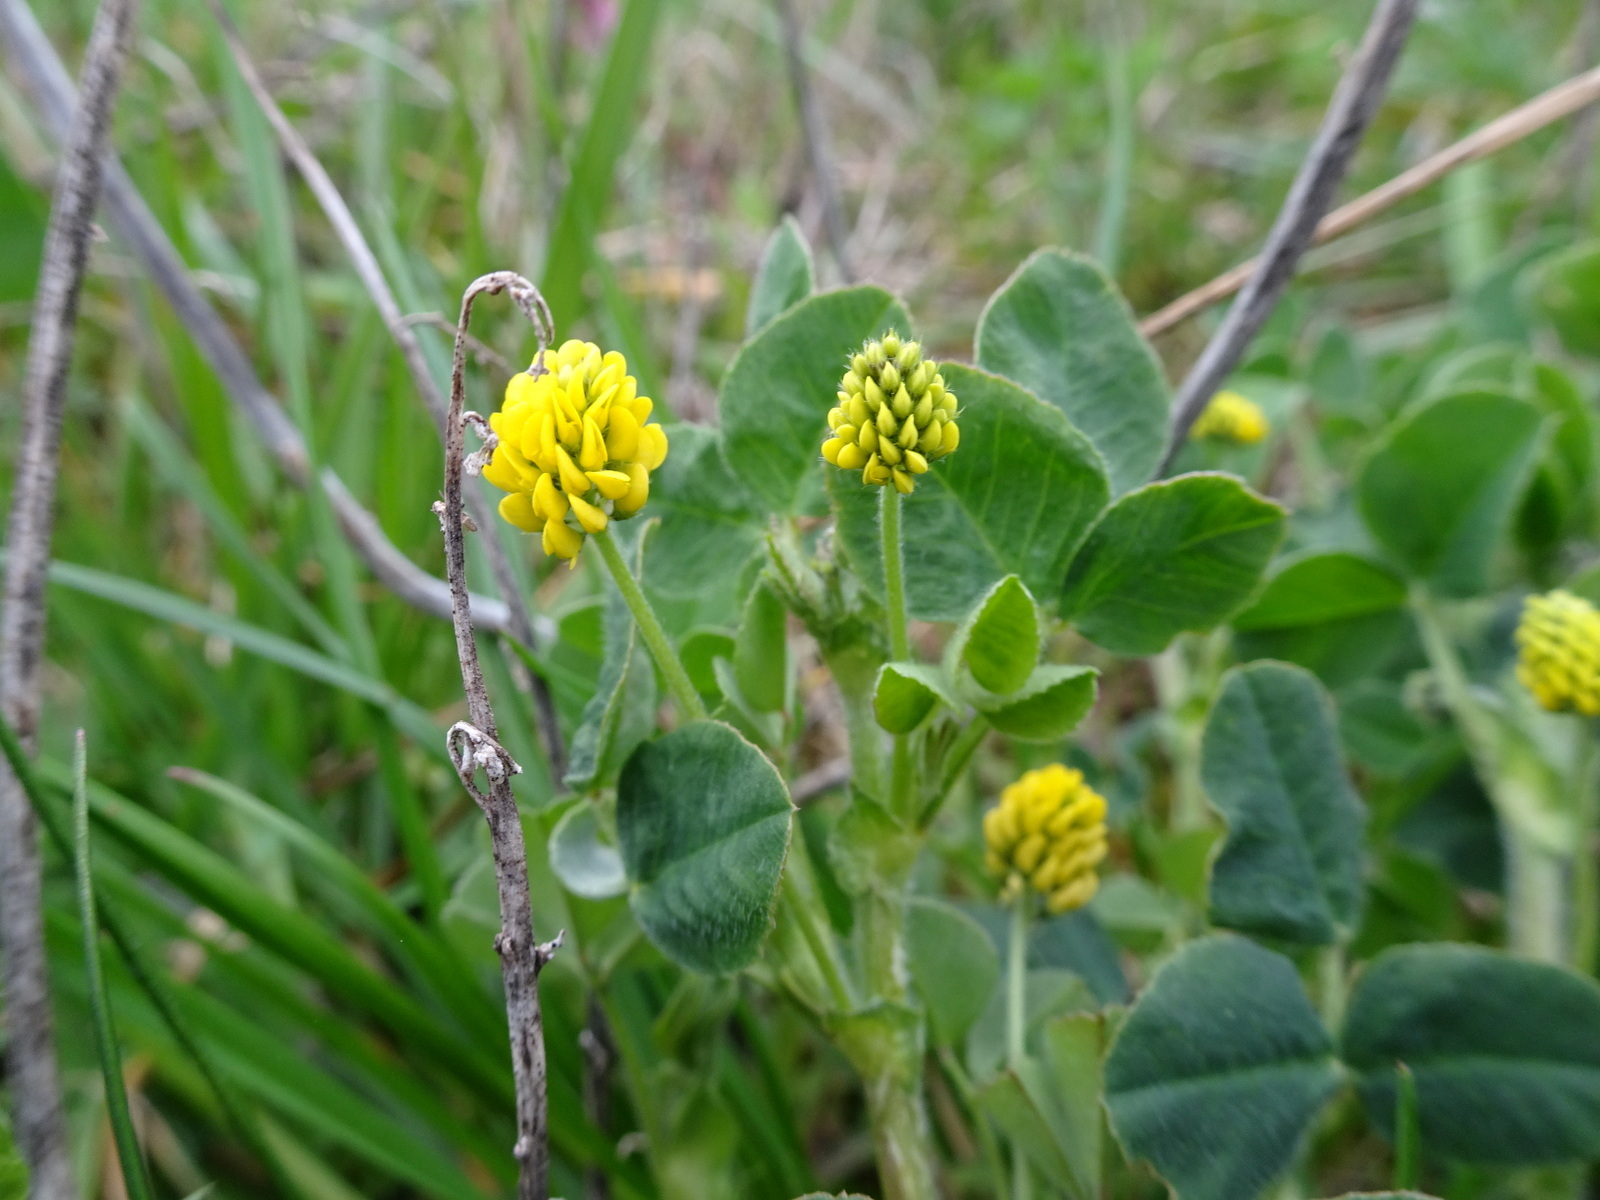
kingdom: Plantae
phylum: Tracheophyta
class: Magnoliopsida
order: Fabales
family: Fabaceae
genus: Medicago
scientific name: Medicago lupulina
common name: Black medick
